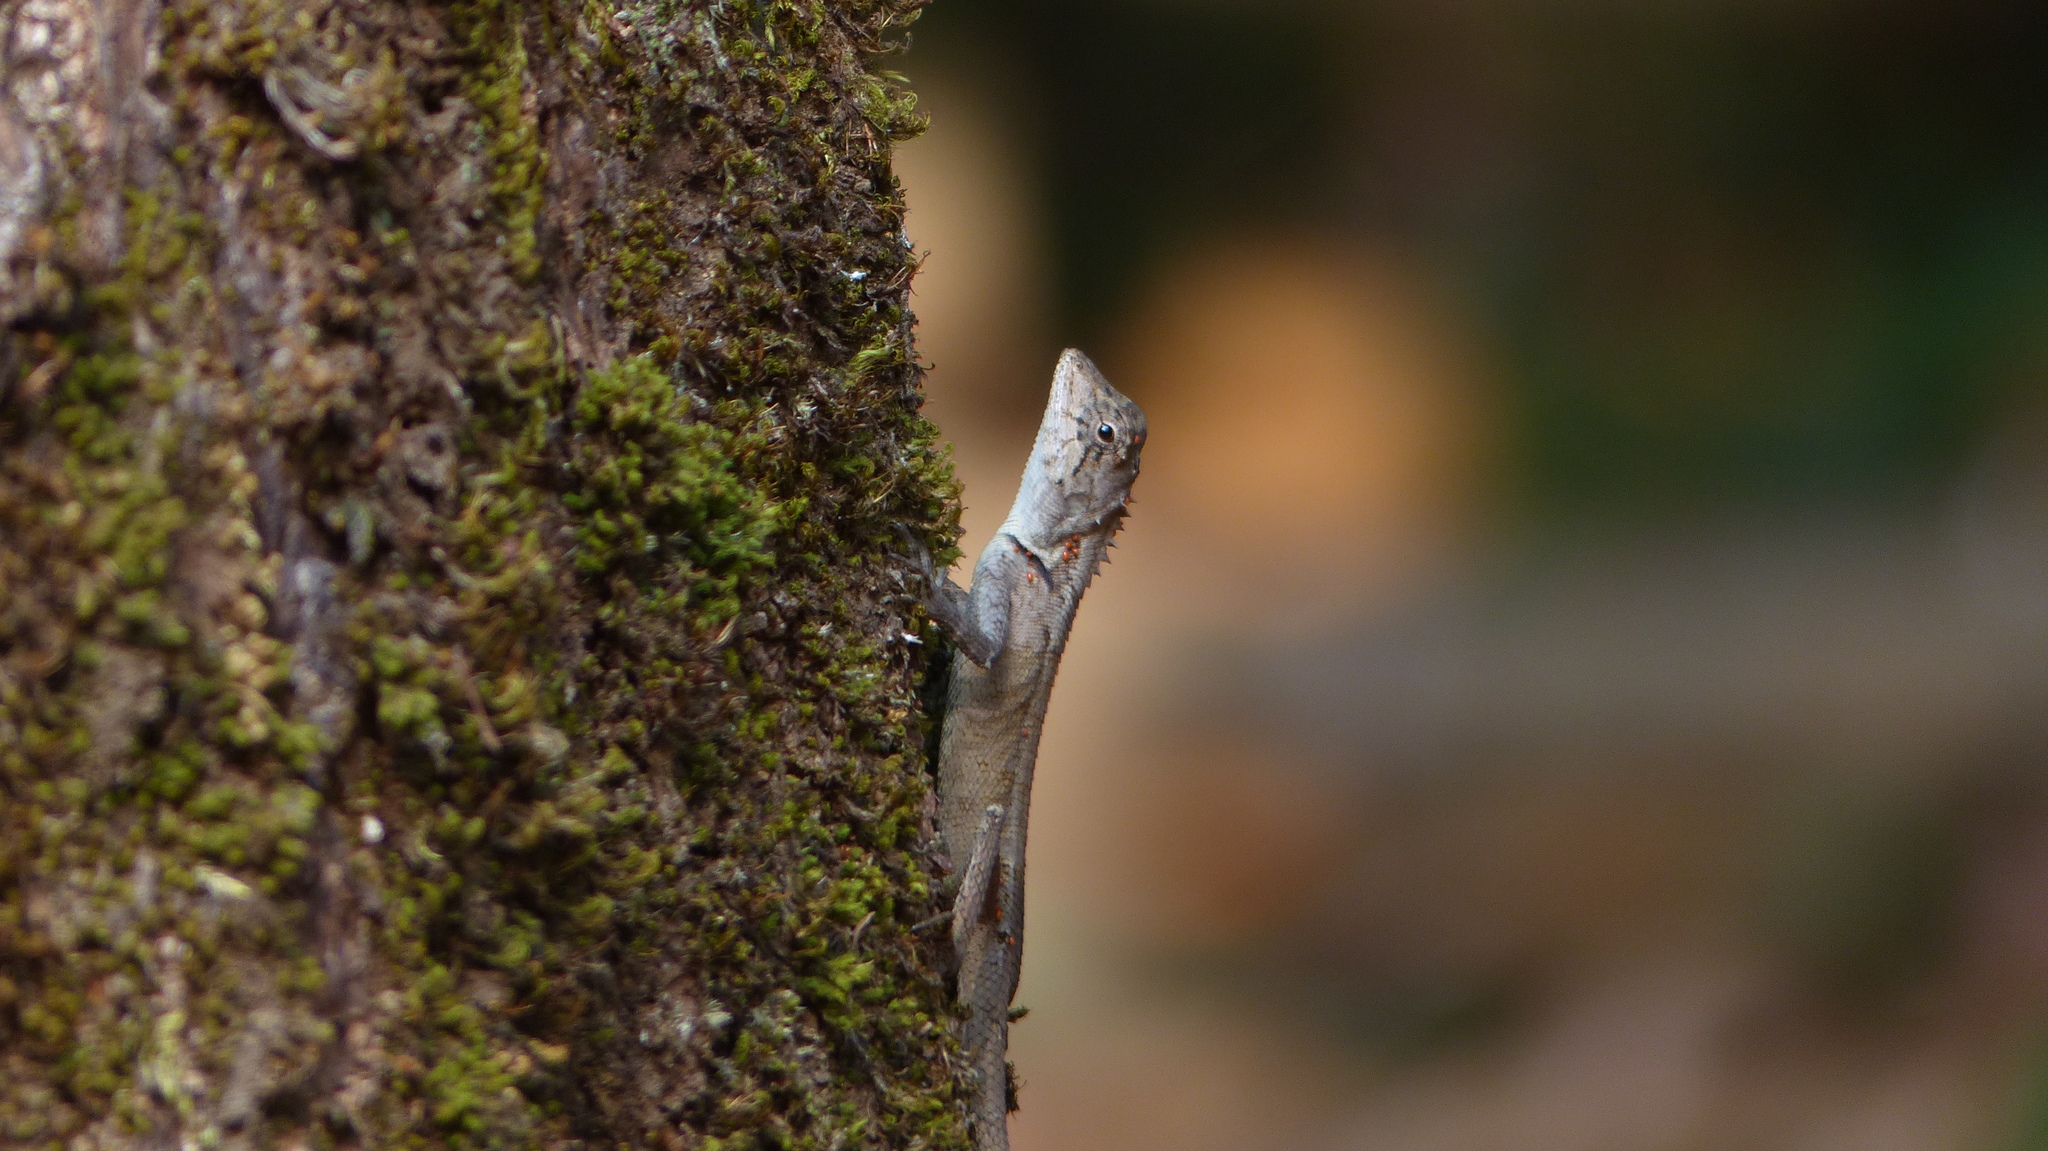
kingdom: Animalia
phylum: Chordata
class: Squamata
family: Agamidae
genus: Monilesaurus
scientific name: Monilesaurus rouxii
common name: Roux's forest lizard
